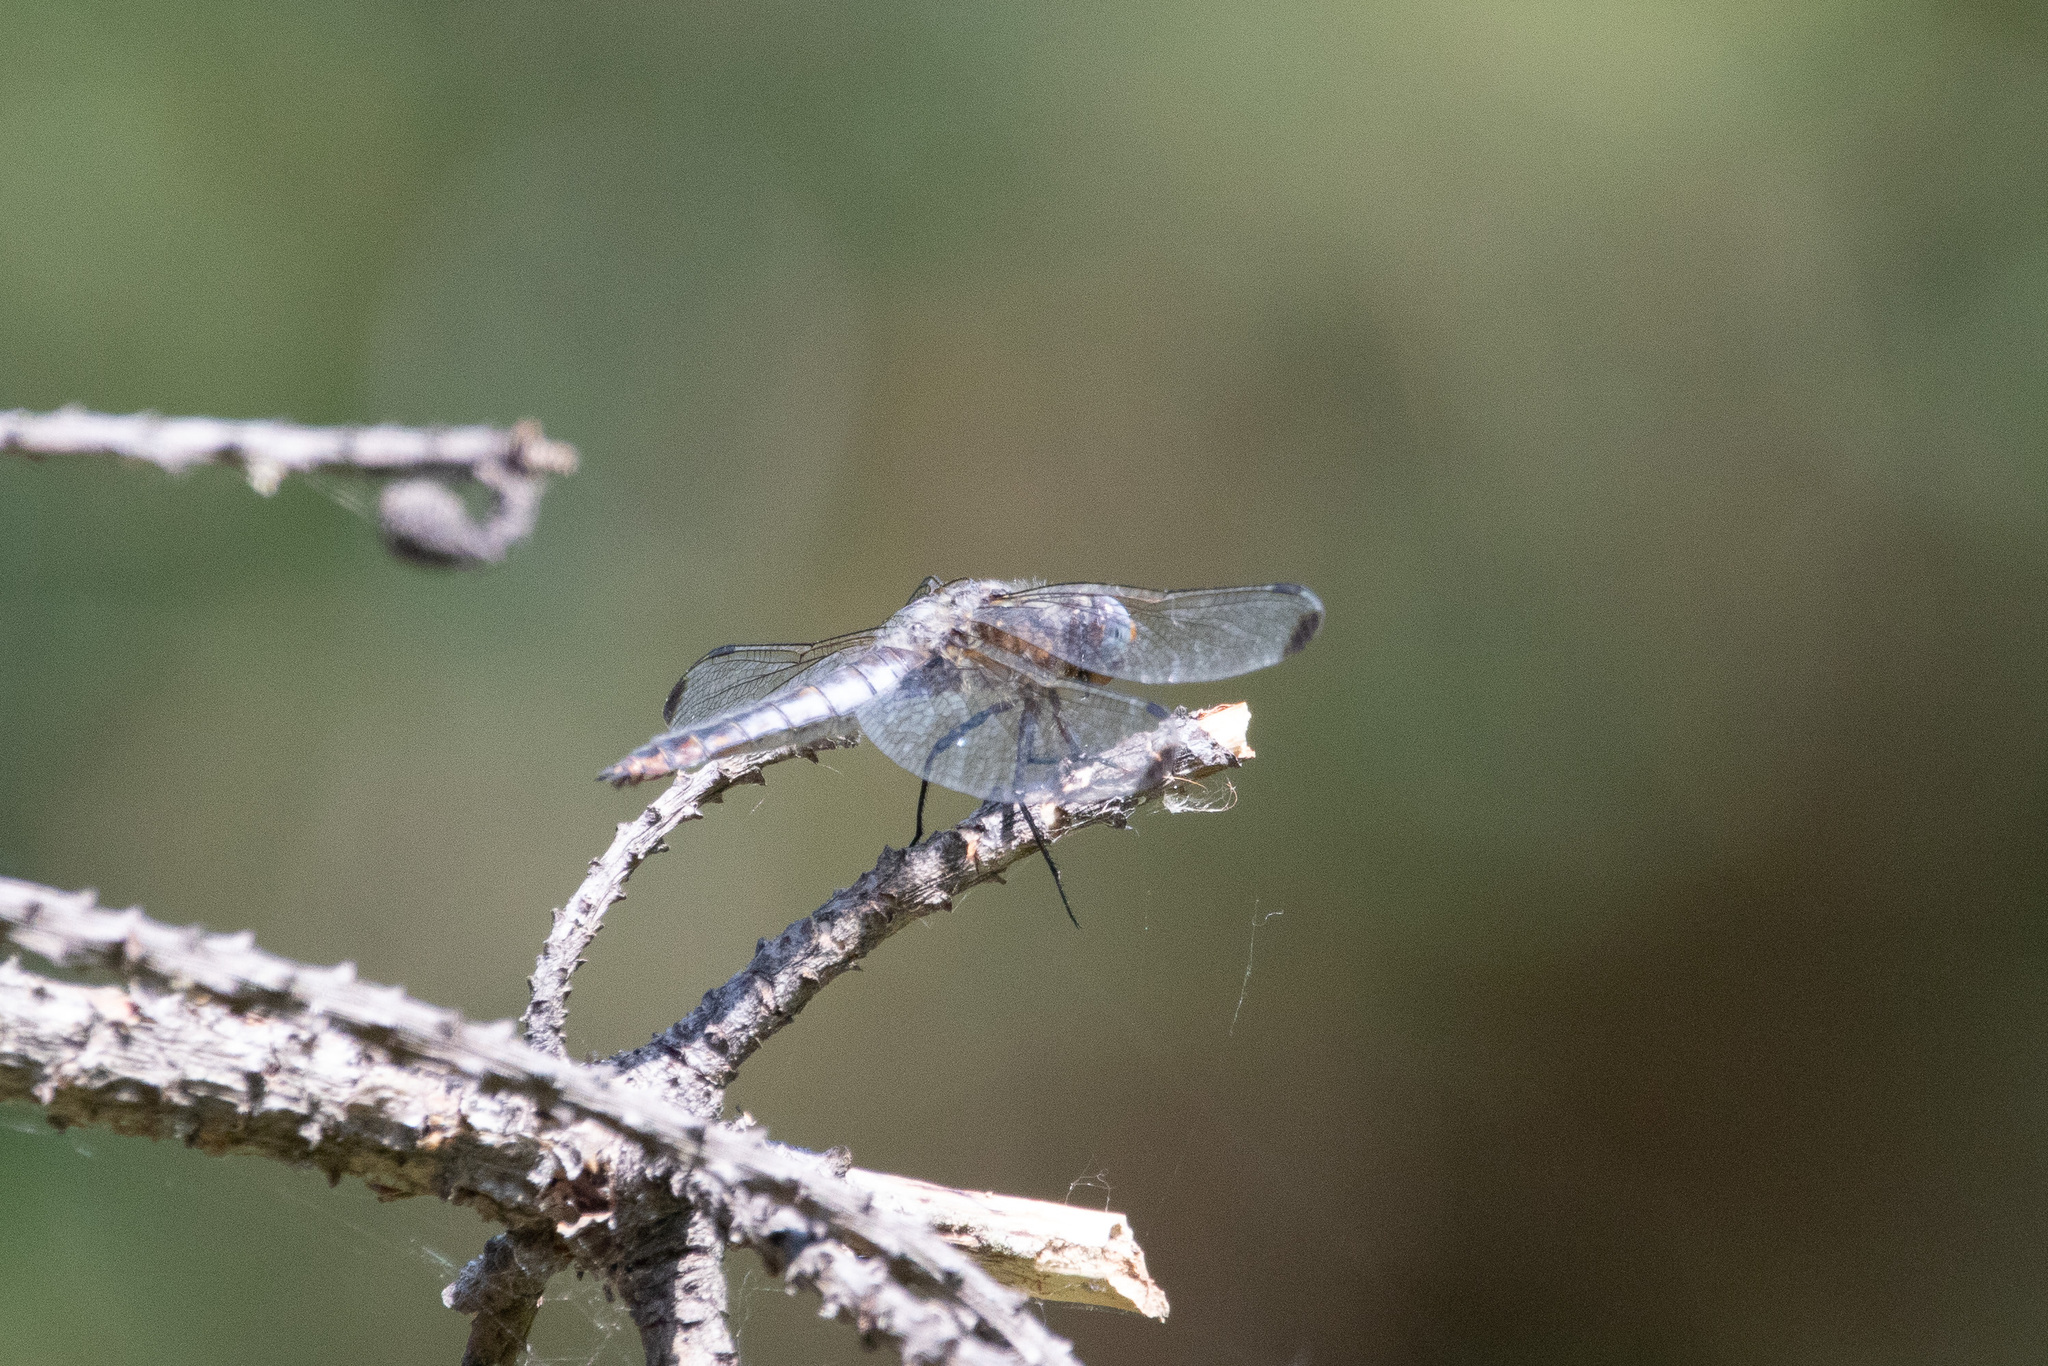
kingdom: Animalia
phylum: Arthropoda
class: Insecta
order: Odonata
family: Libellulidae
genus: Libellula
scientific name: Libellula fulva
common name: Blue chaser
